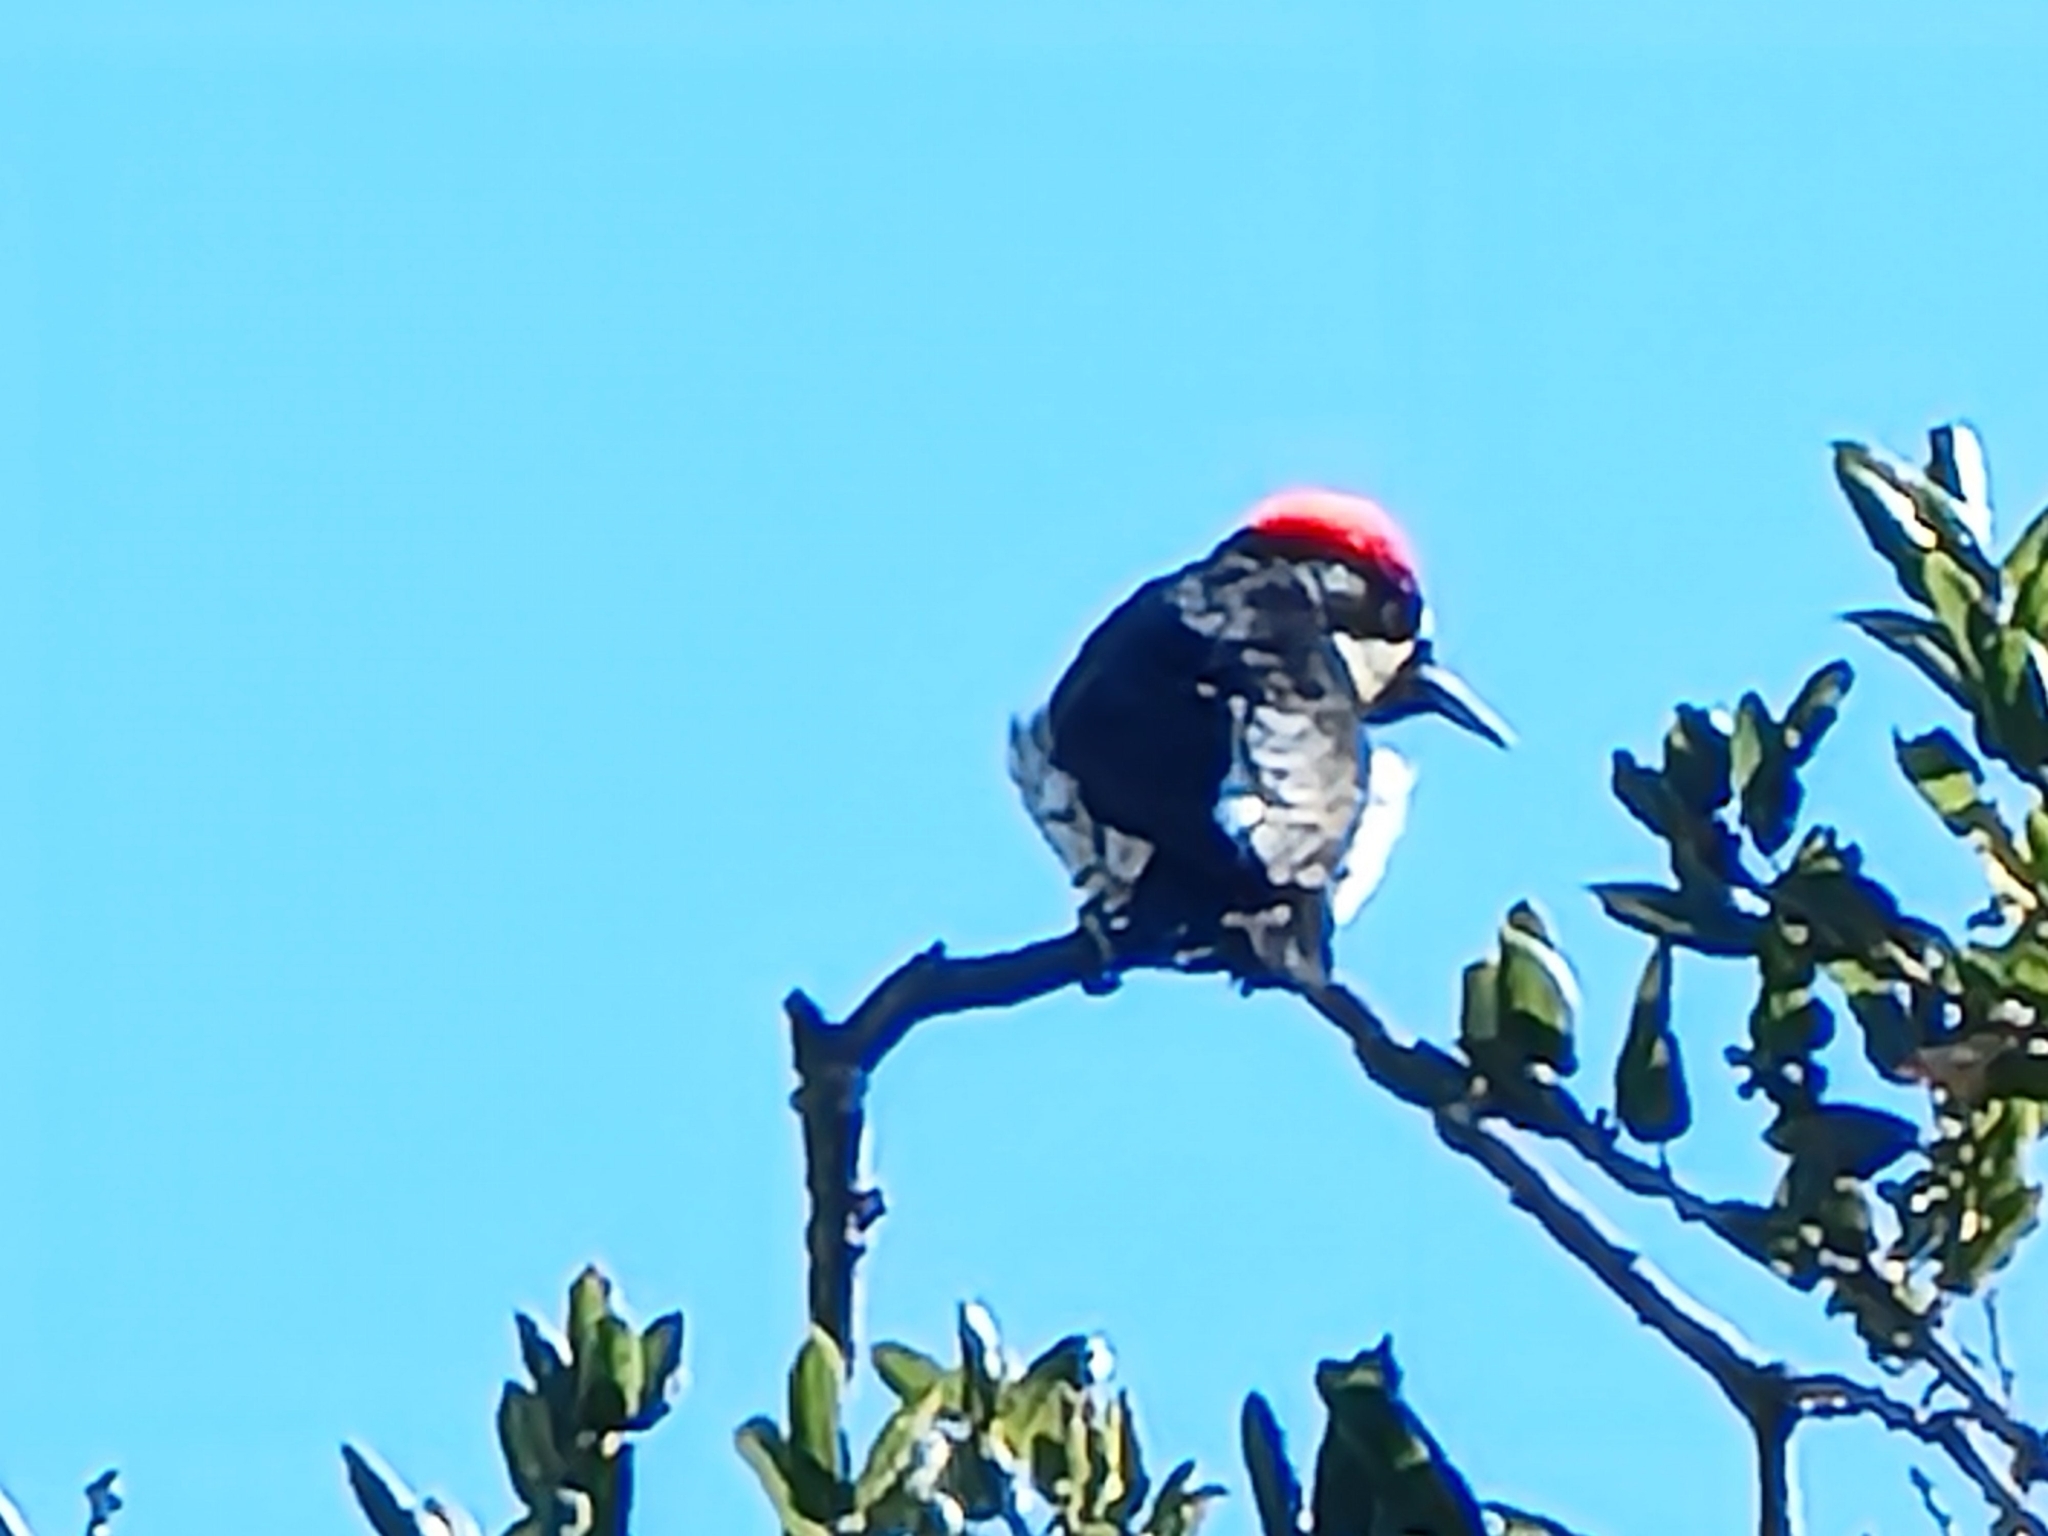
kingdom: Animalia
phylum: Chordata
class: Aves
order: Piciformes
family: Picidae
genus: Melanerpes
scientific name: Melanerpes formicivorus
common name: Acorn woodpecker
